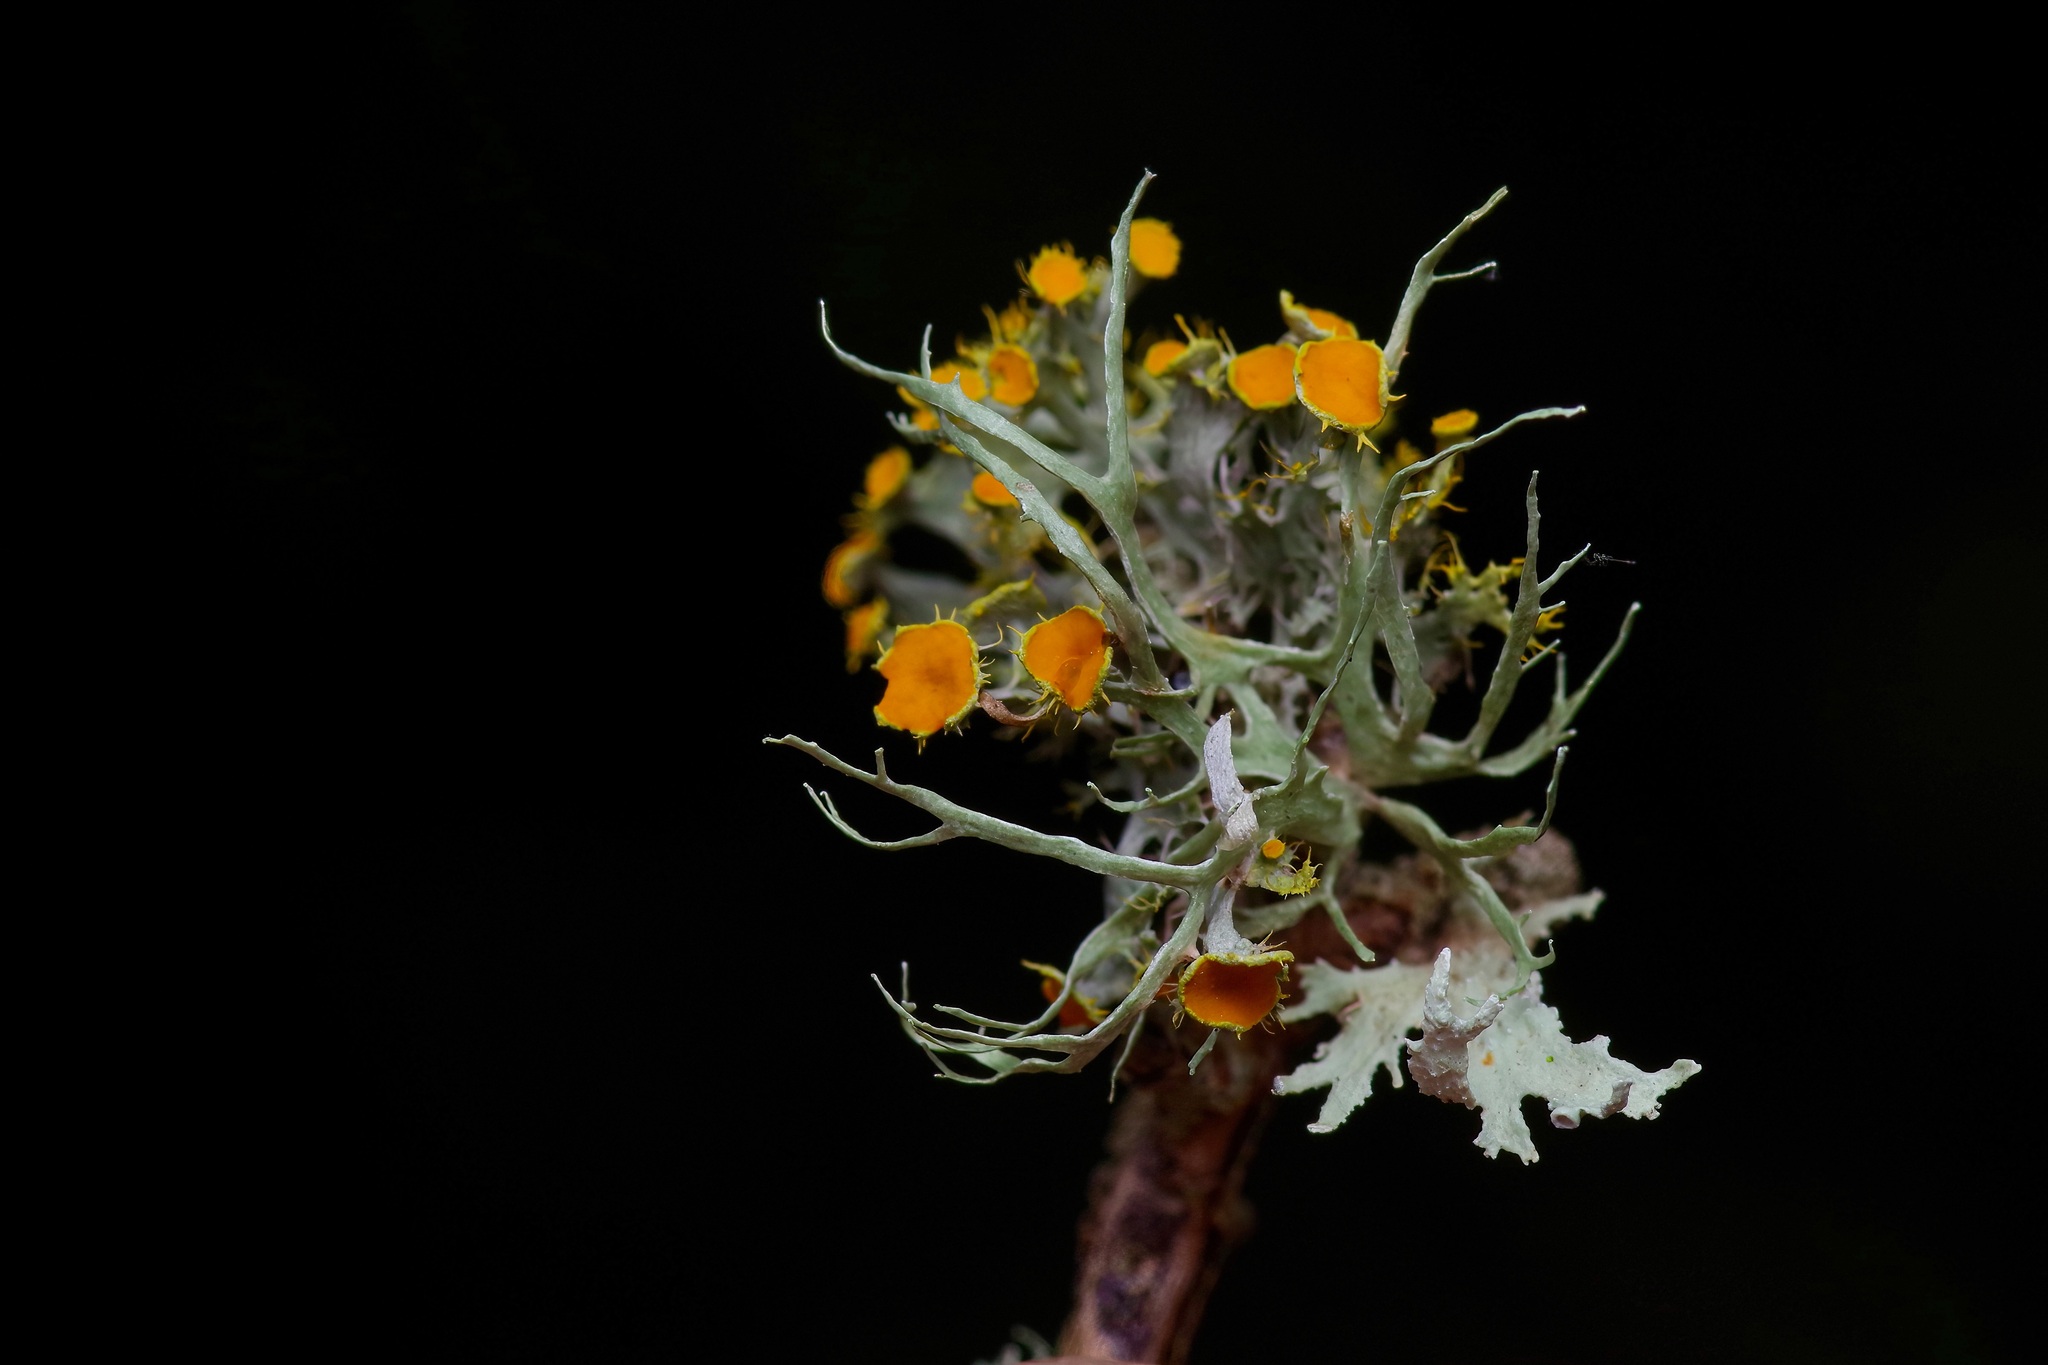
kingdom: Fungi
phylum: Ascomycota
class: Lecanoromycetes
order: Teloschistales
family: Teloschistaceae
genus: Niorma
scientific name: Niorma chrysophthalma
